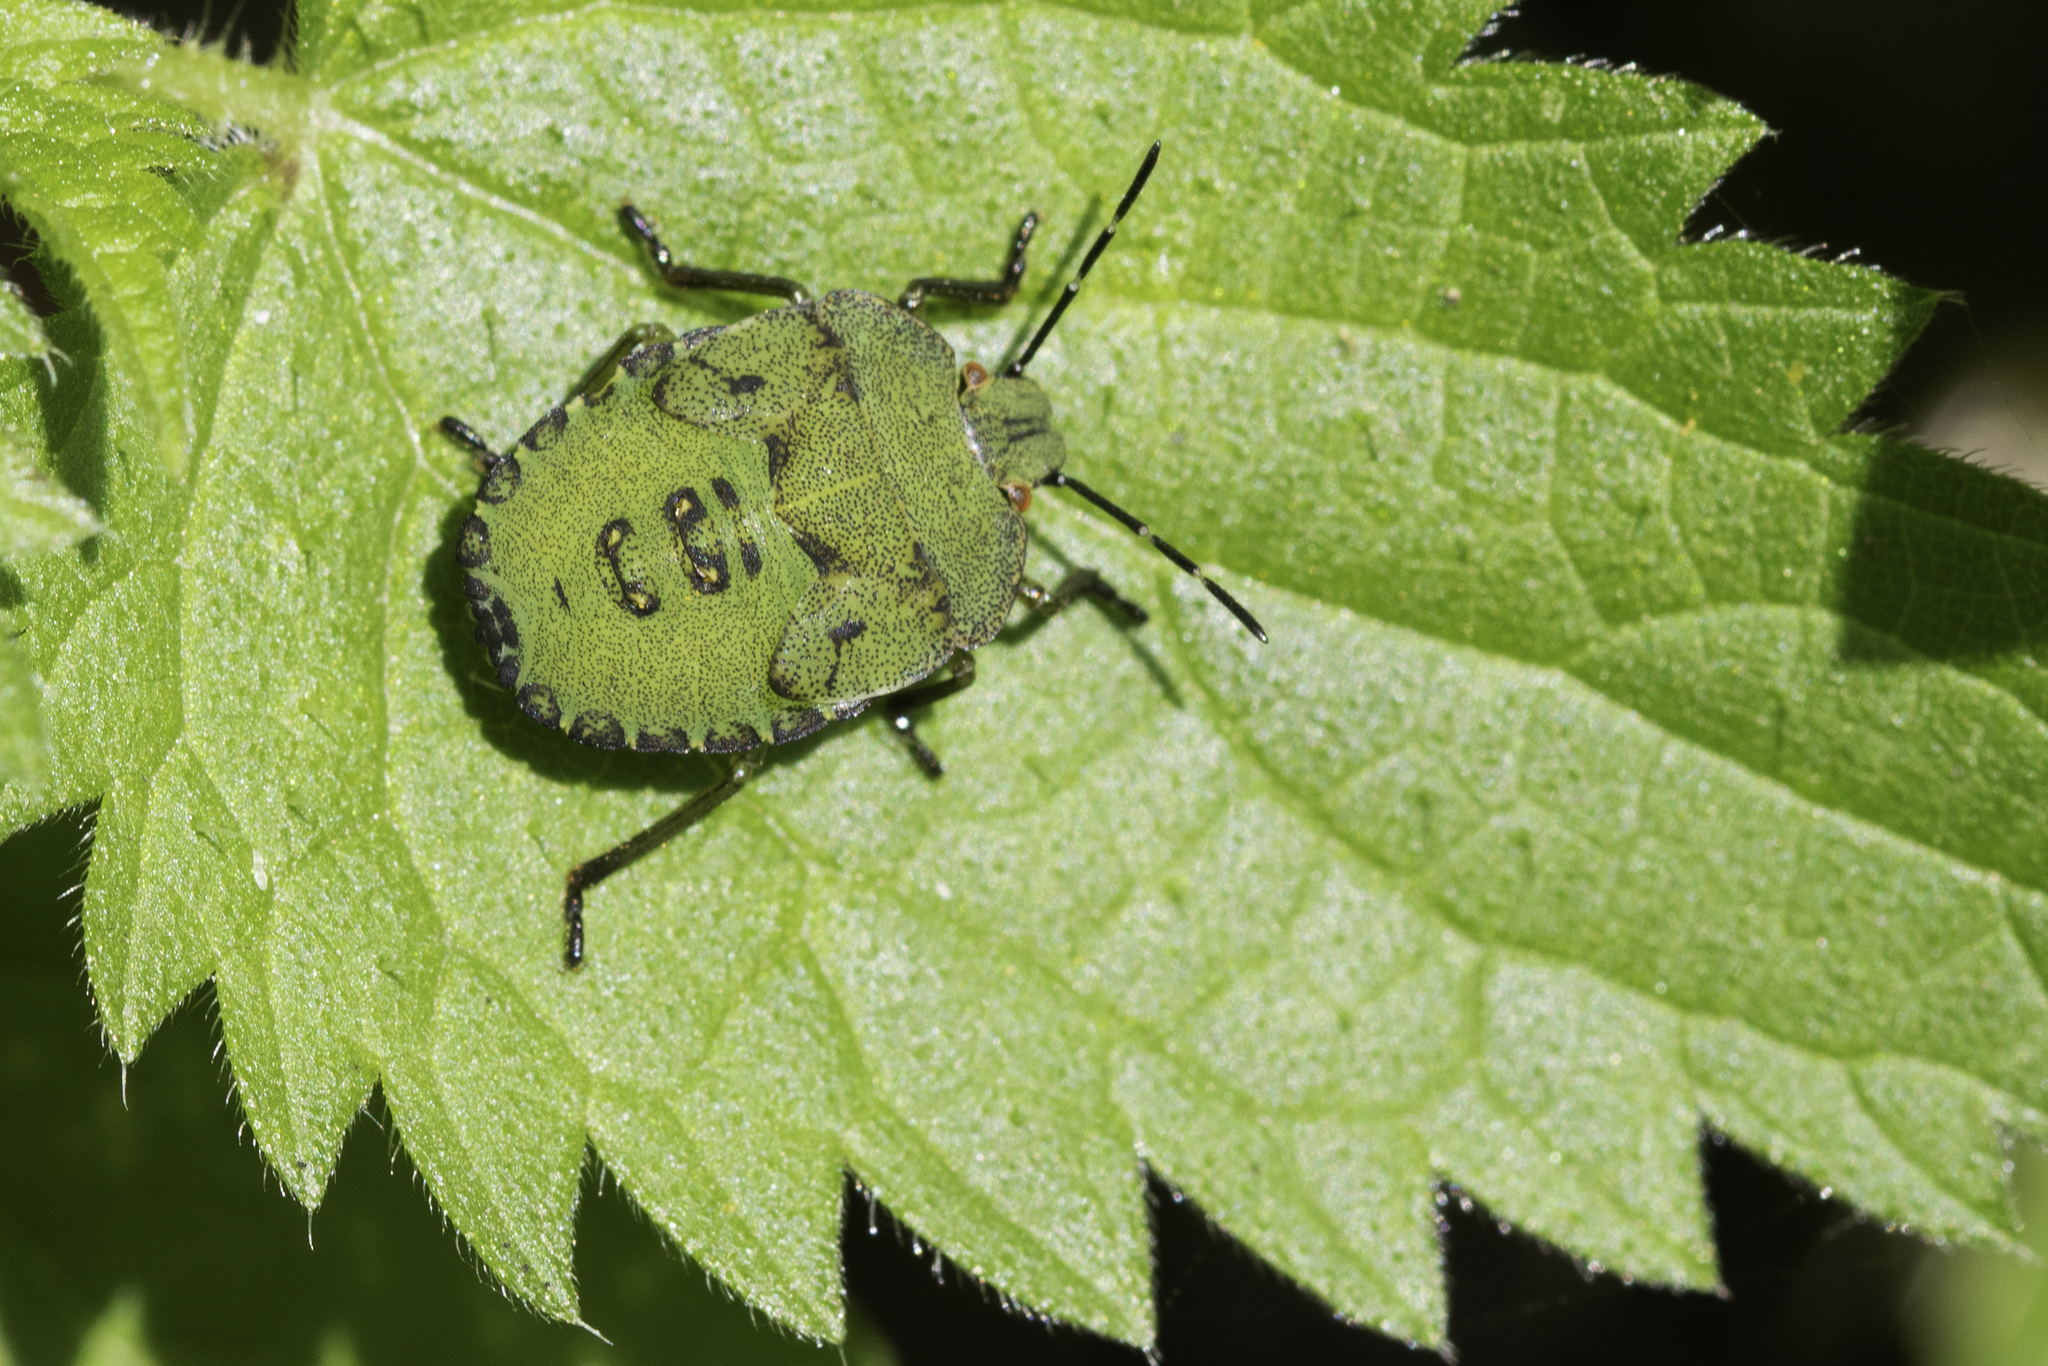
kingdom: Animalia
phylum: Arthropoda
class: Insecta
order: Hemiptera
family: Pentatomidae
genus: Palomena
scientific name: Palomena prasina
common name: Green shieldbug
